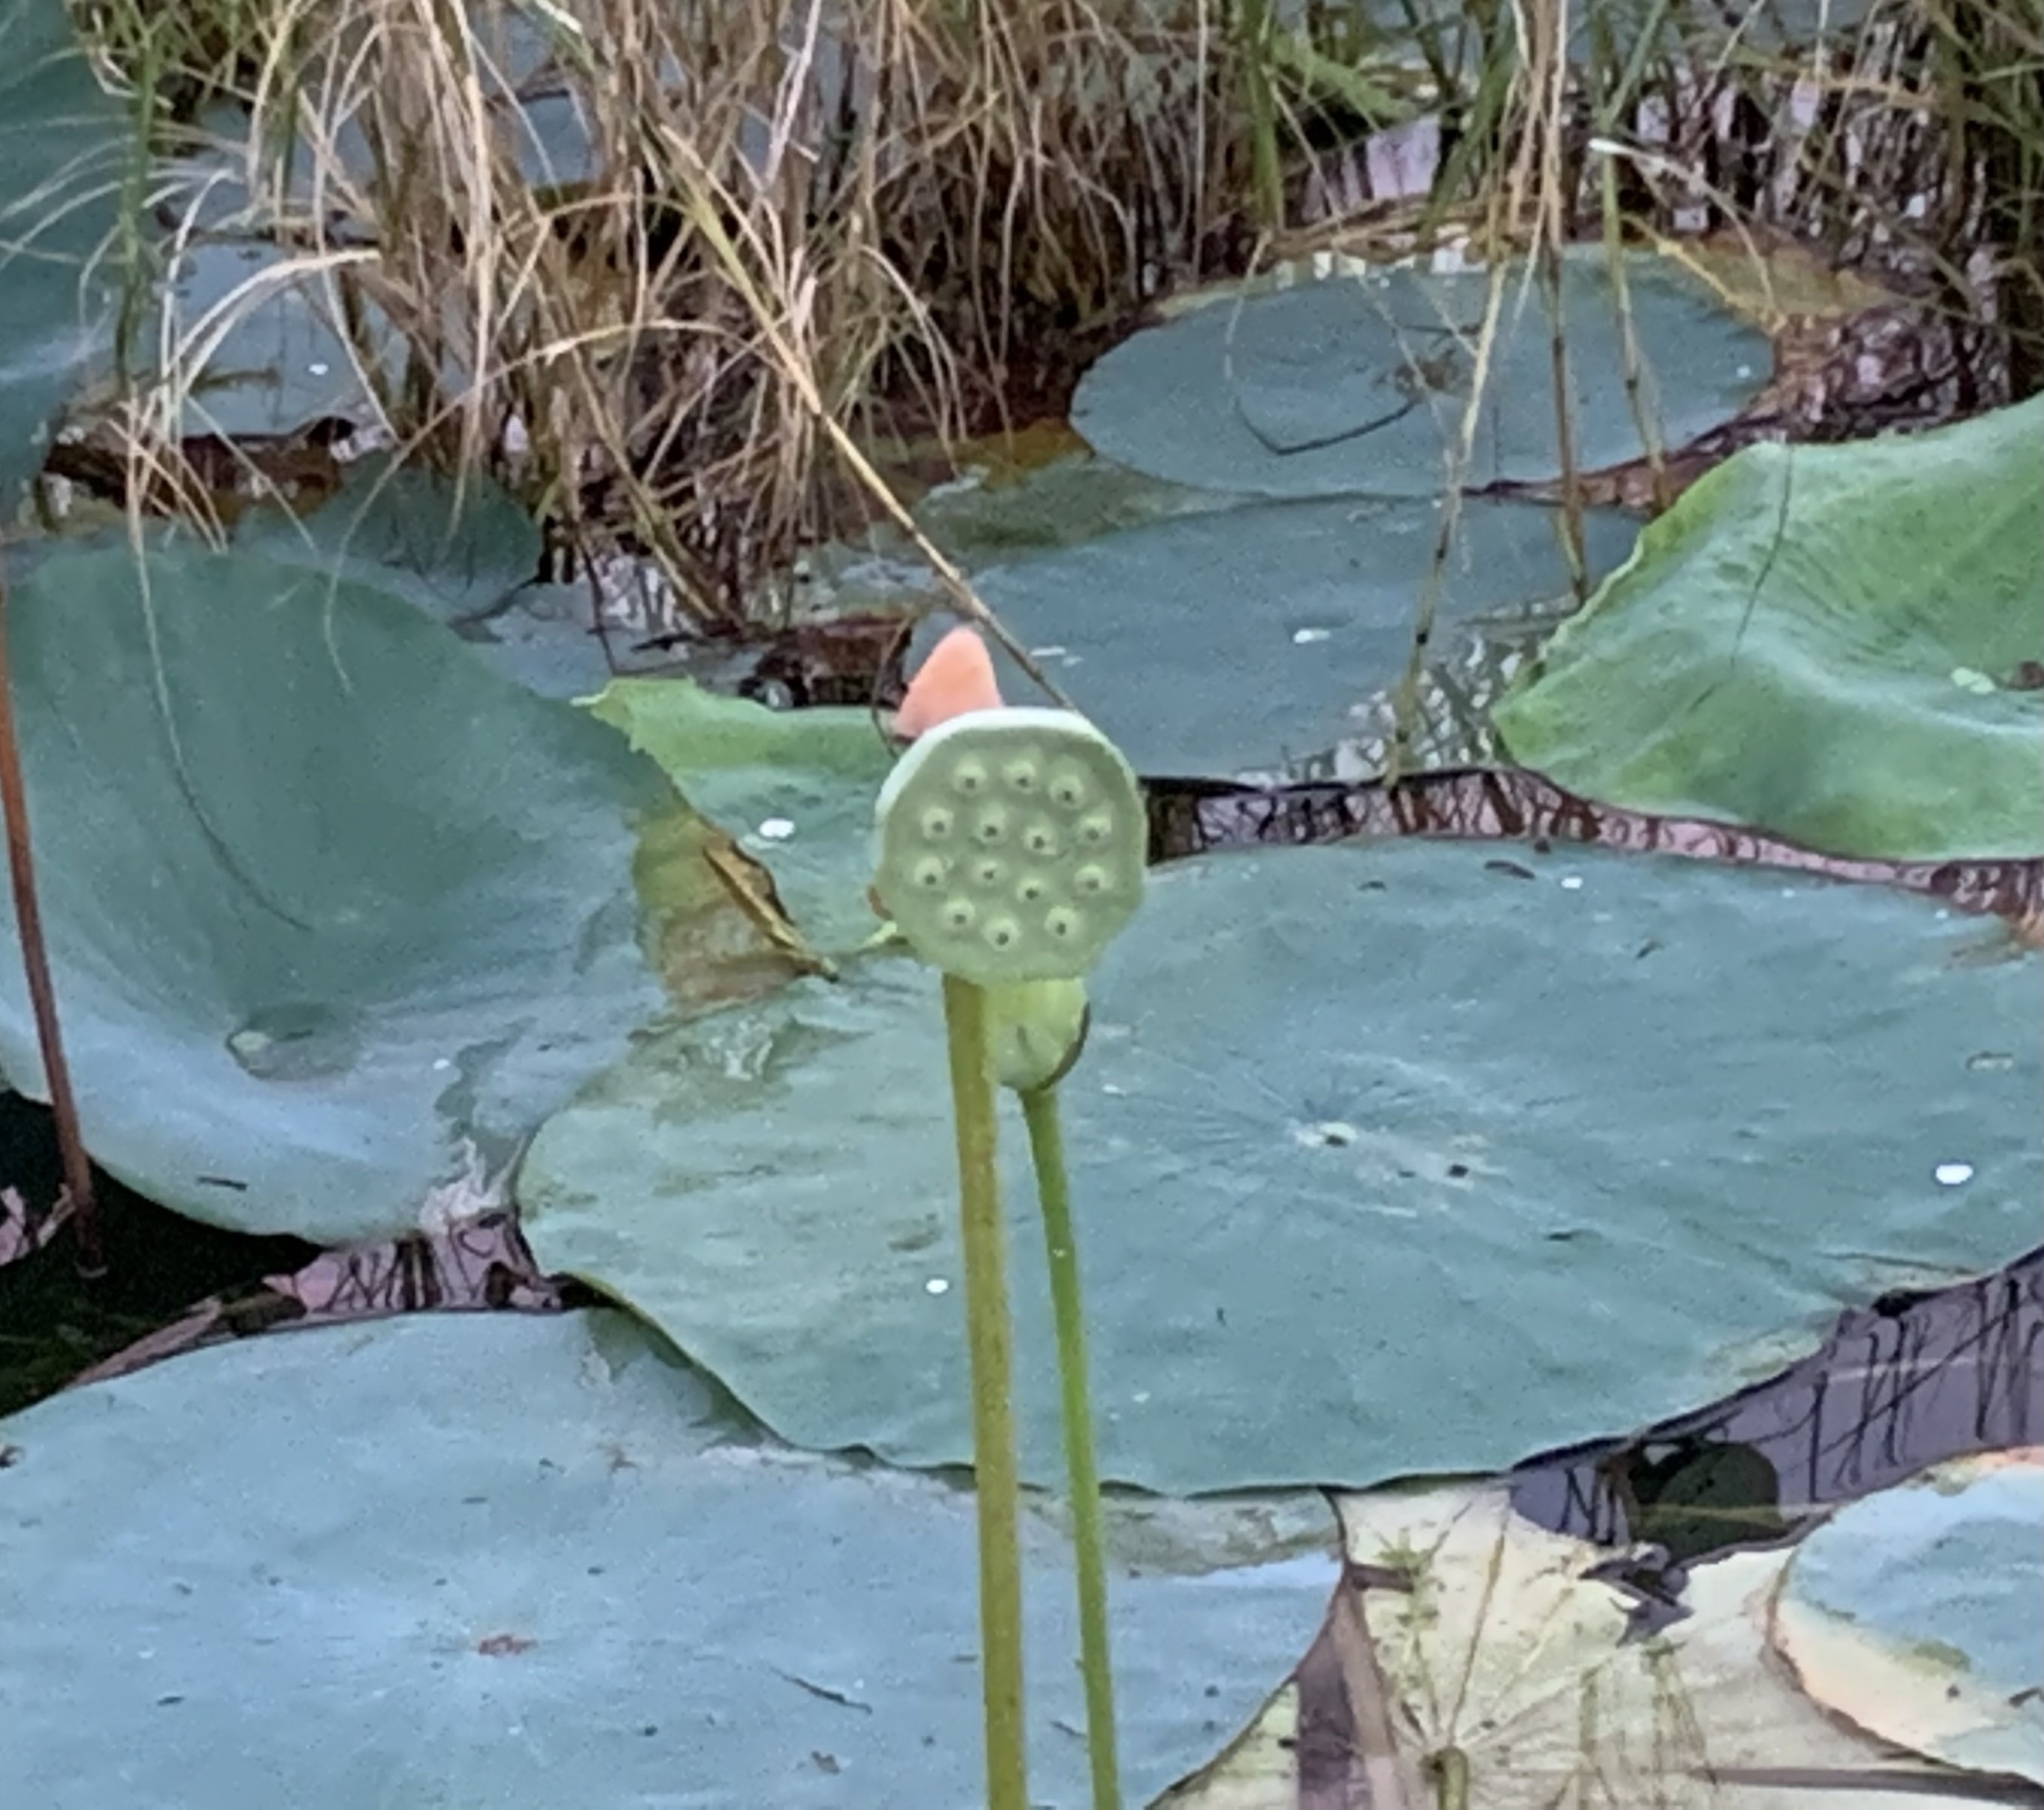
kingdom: Plantae
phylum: Tracheophyta
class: Magnoliopsida
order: Proteales
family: Nelumbonaceae
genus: Nelumbo
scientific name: Nelumbo lutea
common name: American lotus
